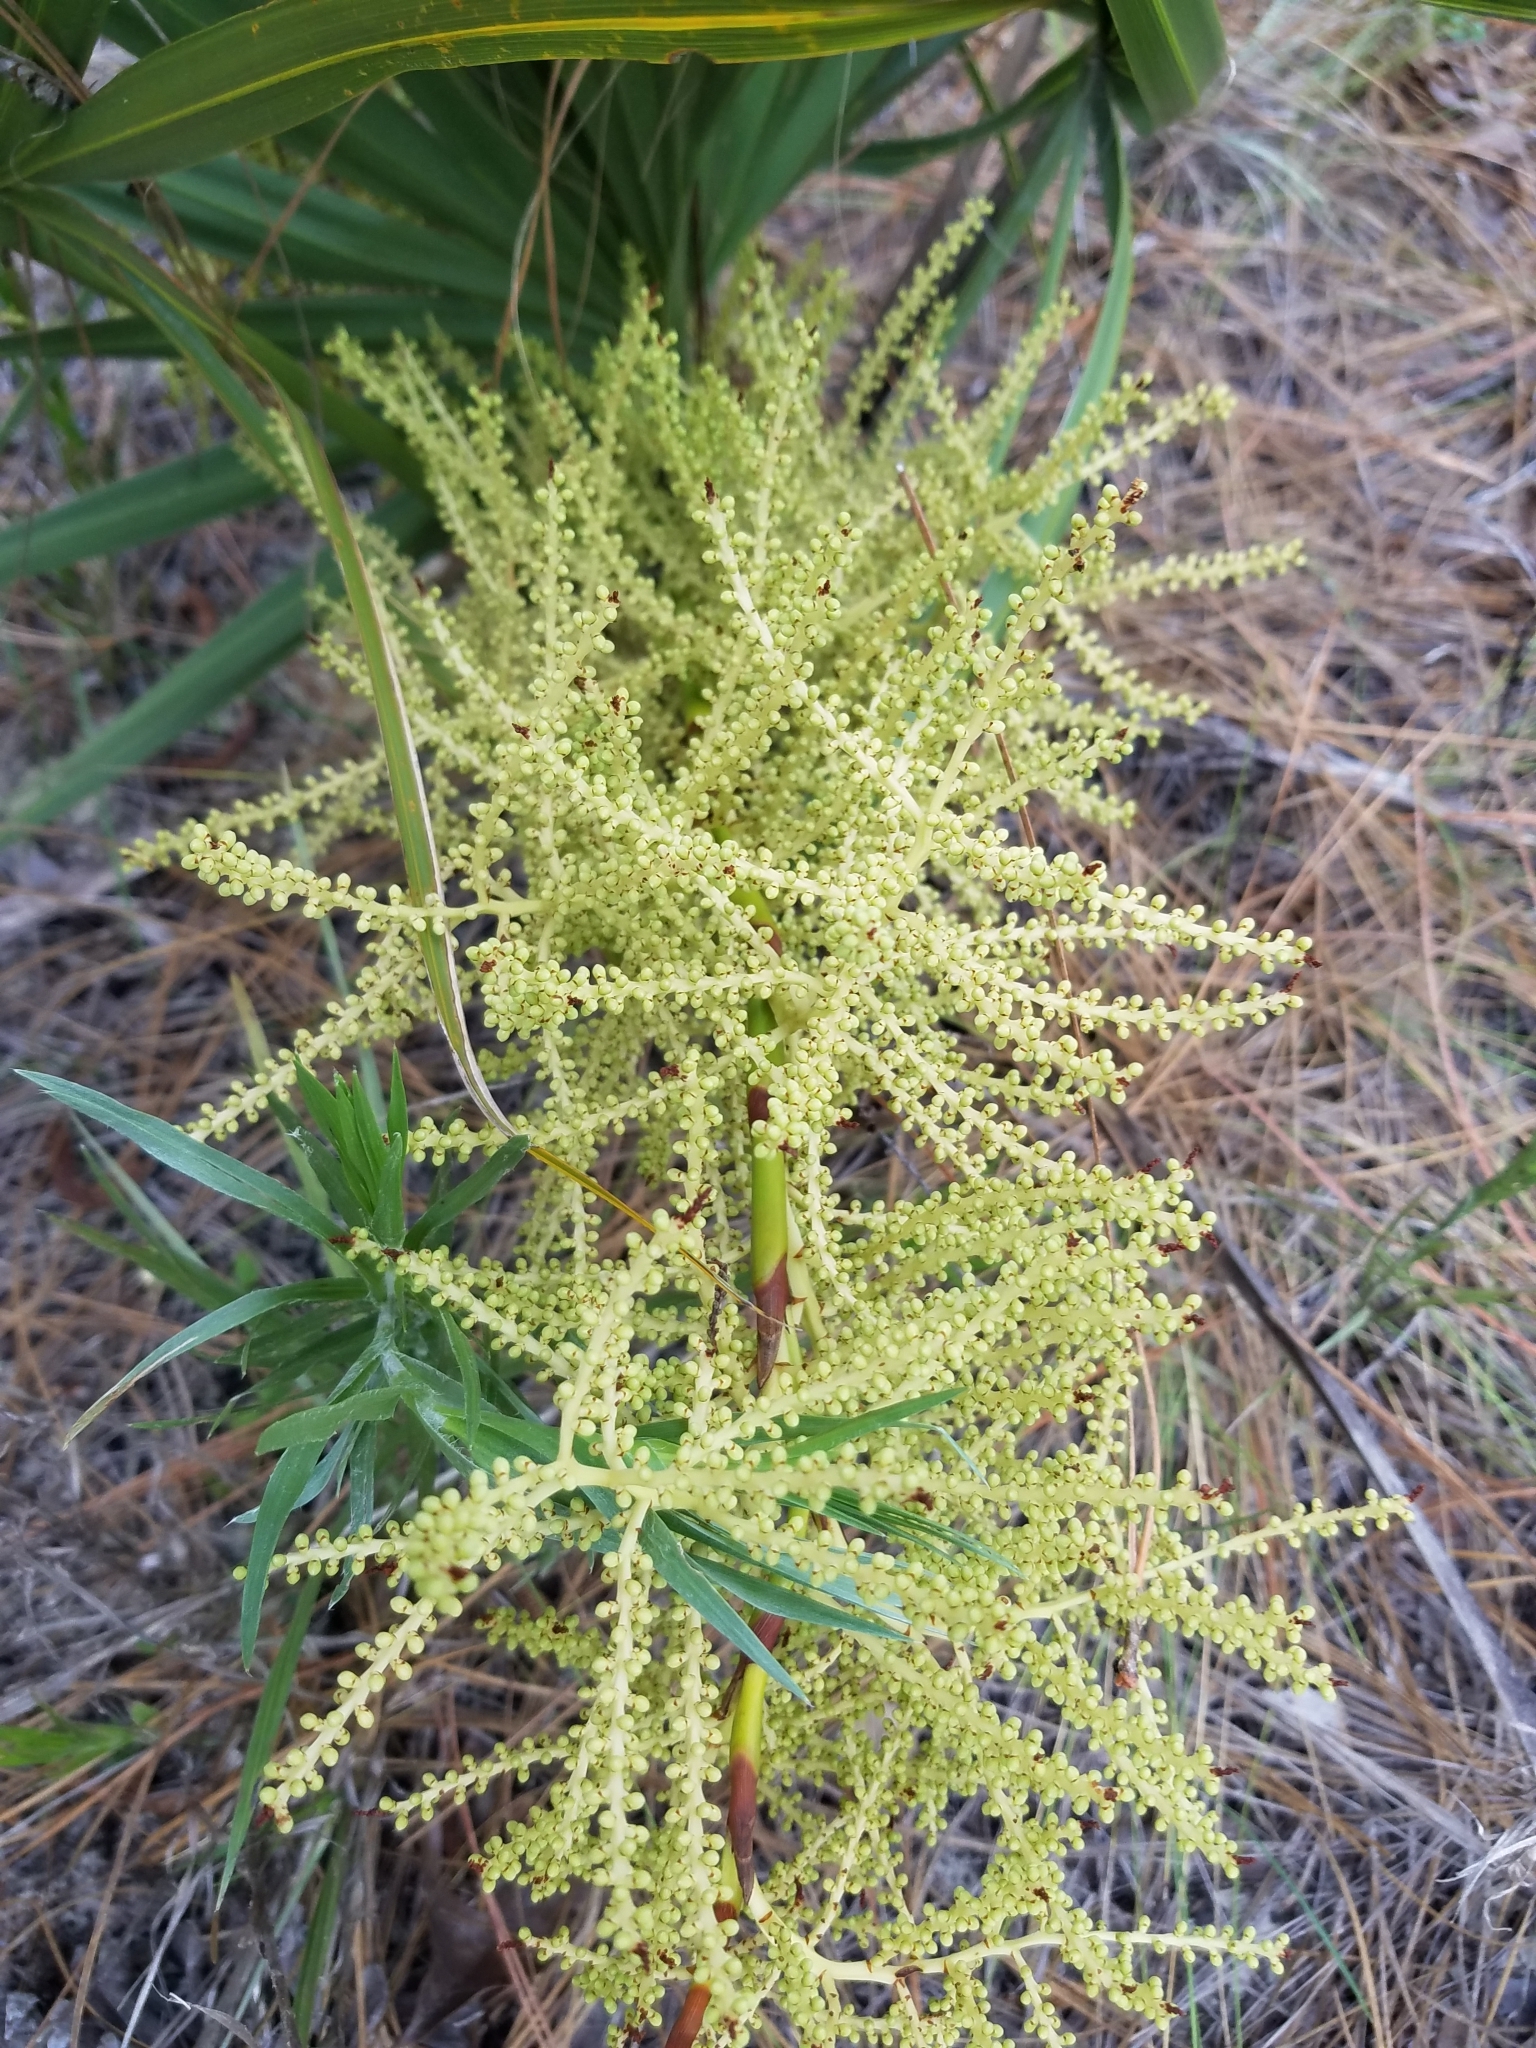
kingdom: Plantae
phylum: Tracheophyta
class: Liliopsida
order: Arecales
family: Arecaceae
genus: Sabal
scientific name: Sabal etonia
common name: Dwarf palmetto
